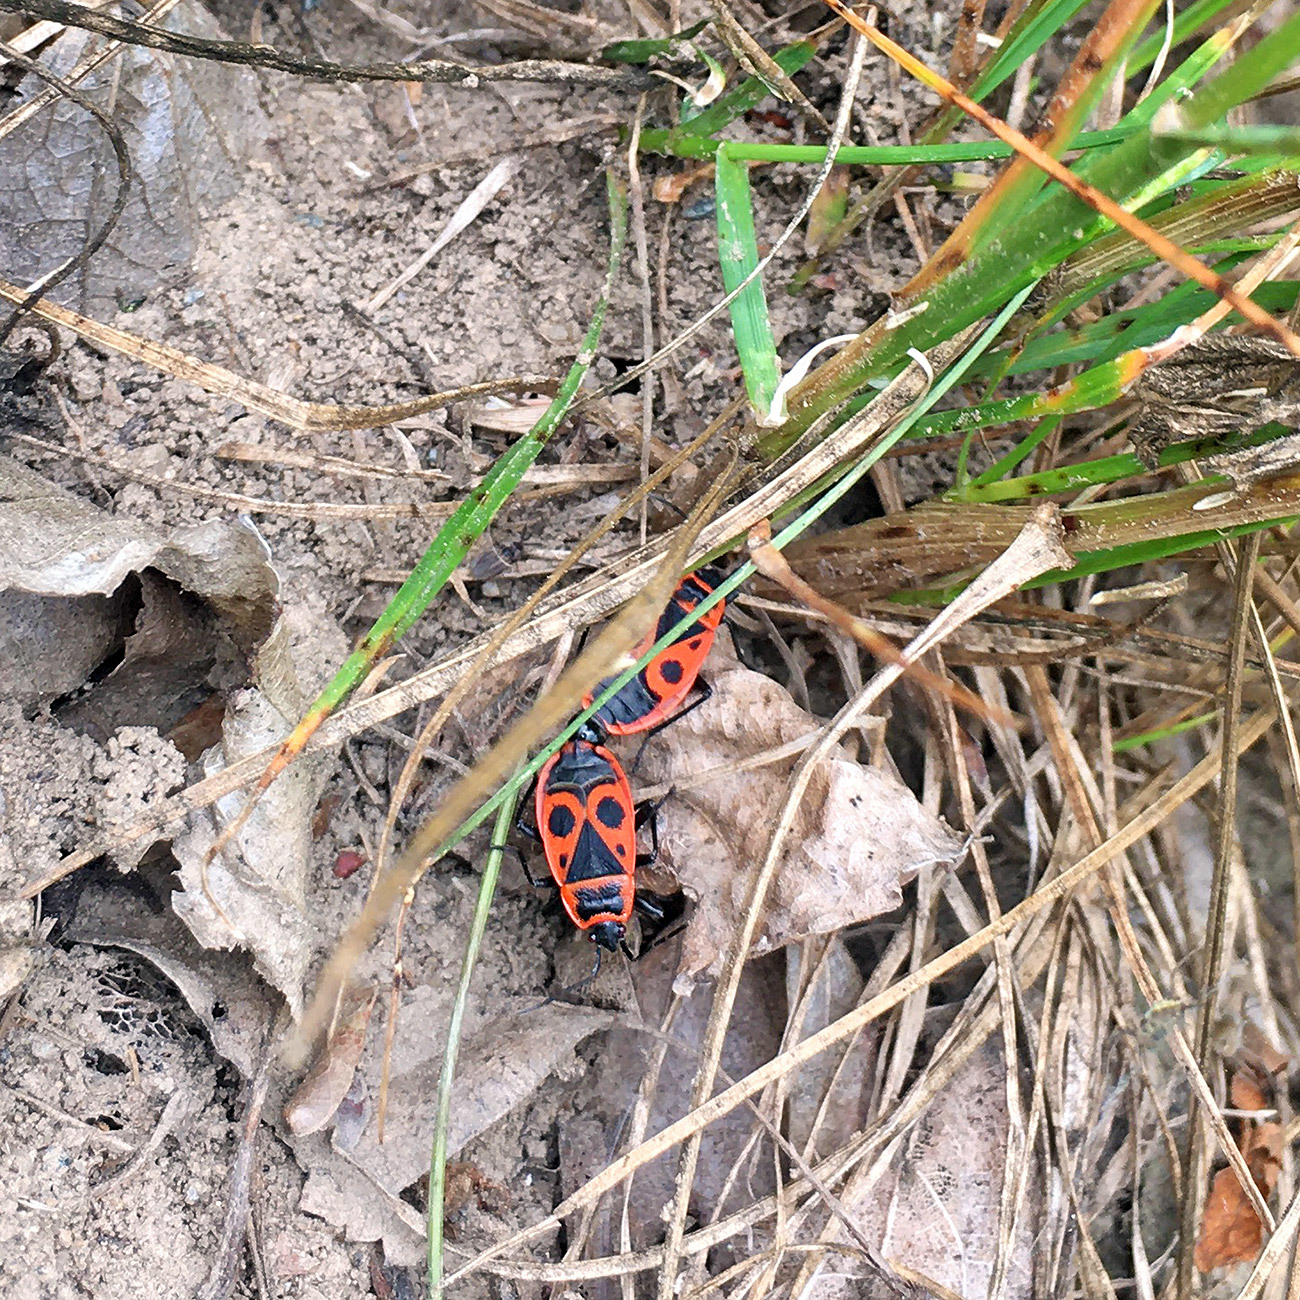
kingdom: Animalia
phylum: Arthropoda
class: Insecta
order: Hemiptera
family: Pyrrhocoridae
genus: Pyrrhocoris
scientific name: Pyrrhocoris apterus
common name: Firebug
